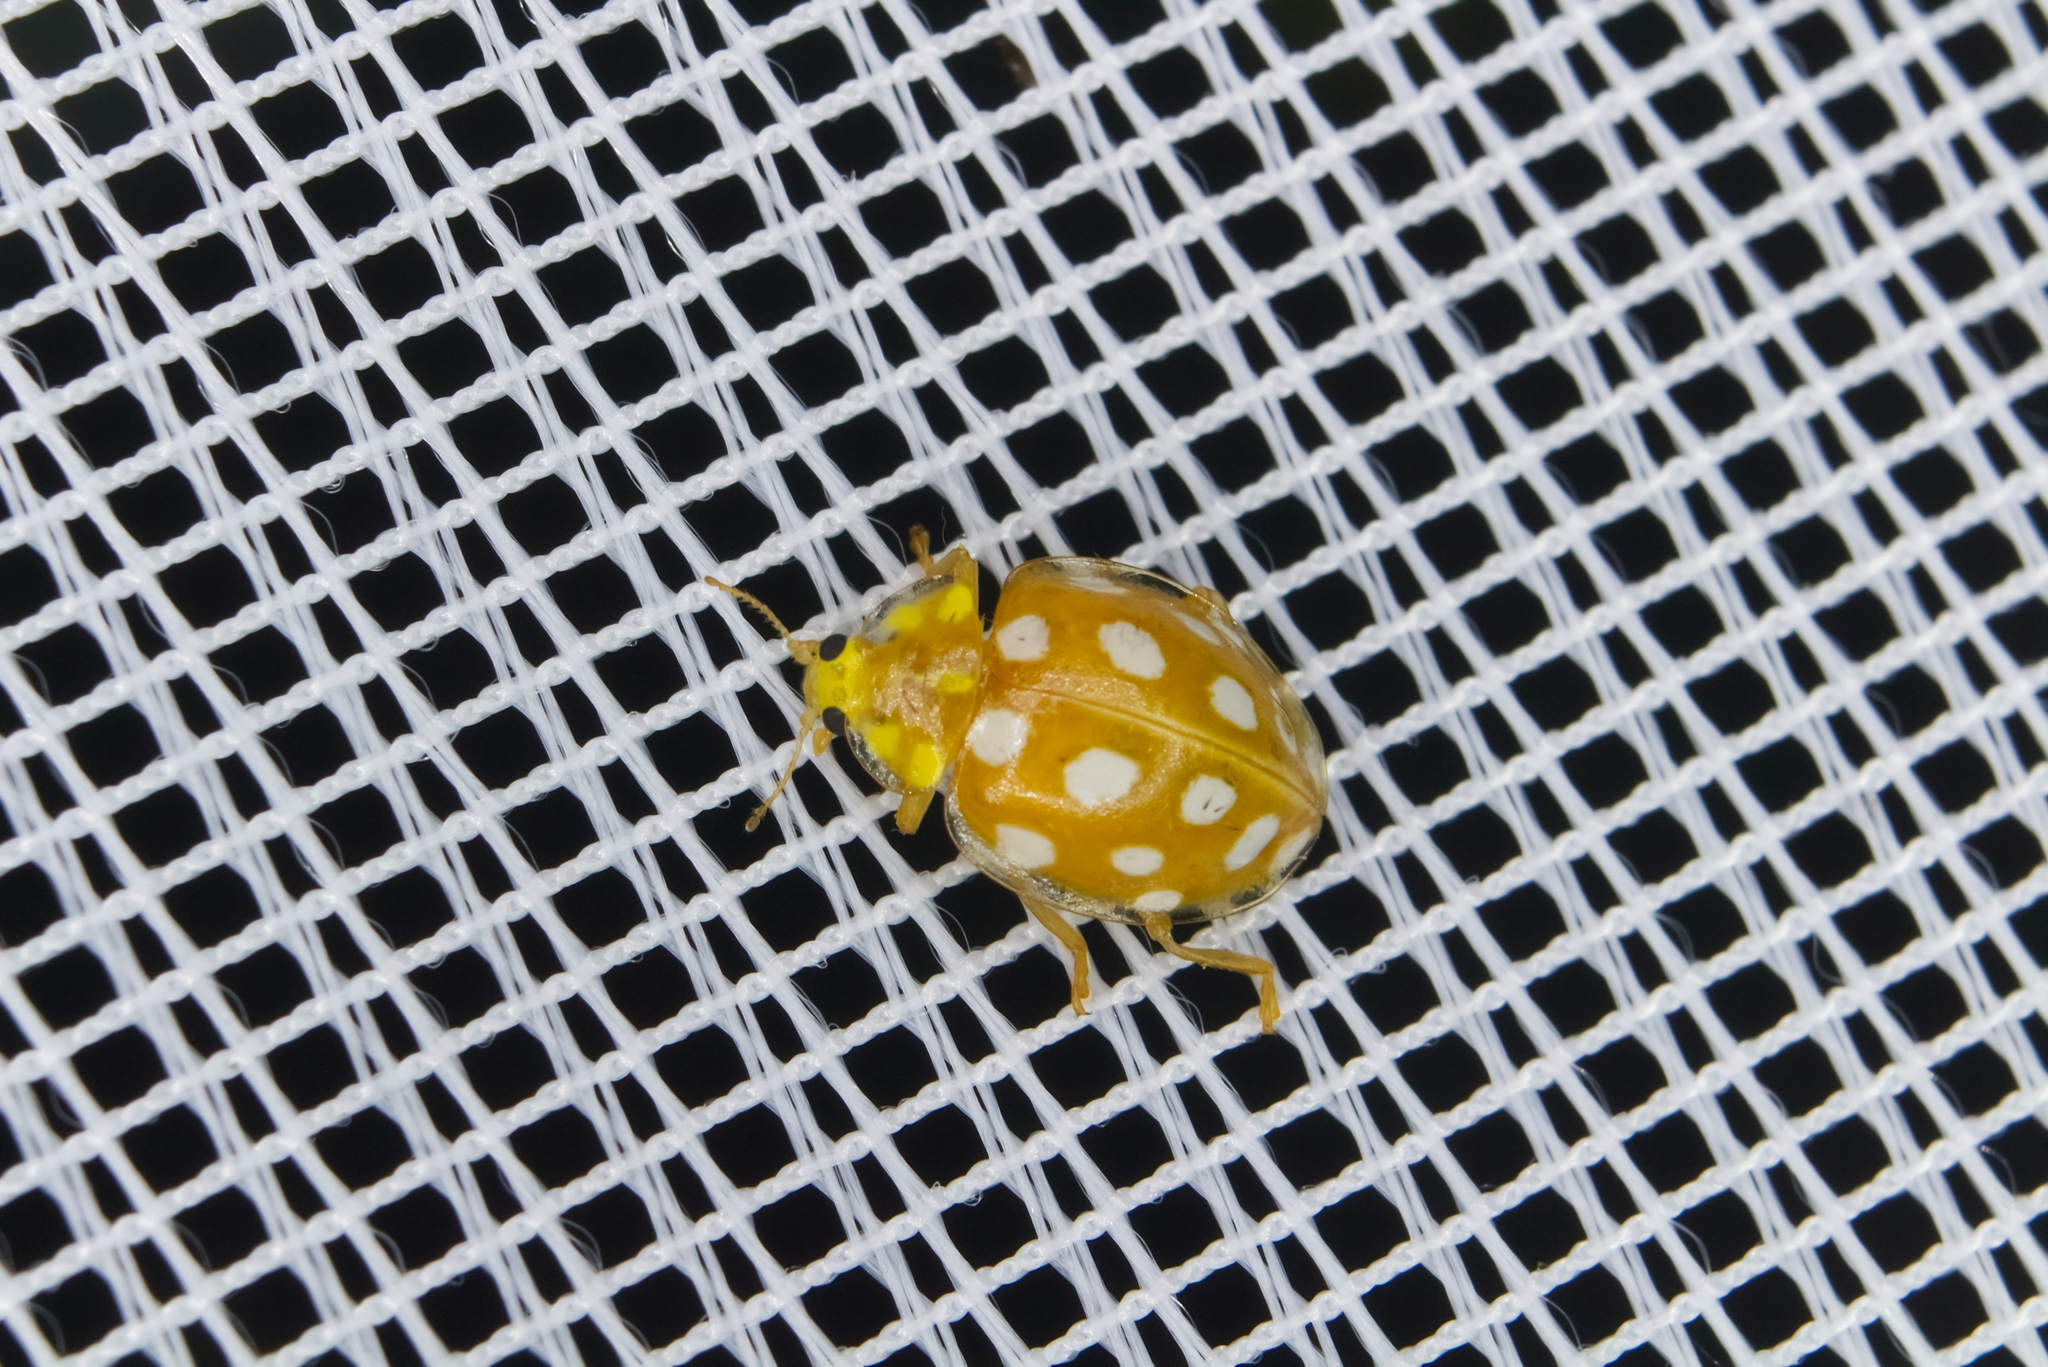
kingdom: Animalia
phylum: Arthropoda
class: Insecta
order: Coleoptera
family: Coccinellidae
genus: Halyzia
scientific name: Halyzia sedecimguttata
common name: Orange ladybird
